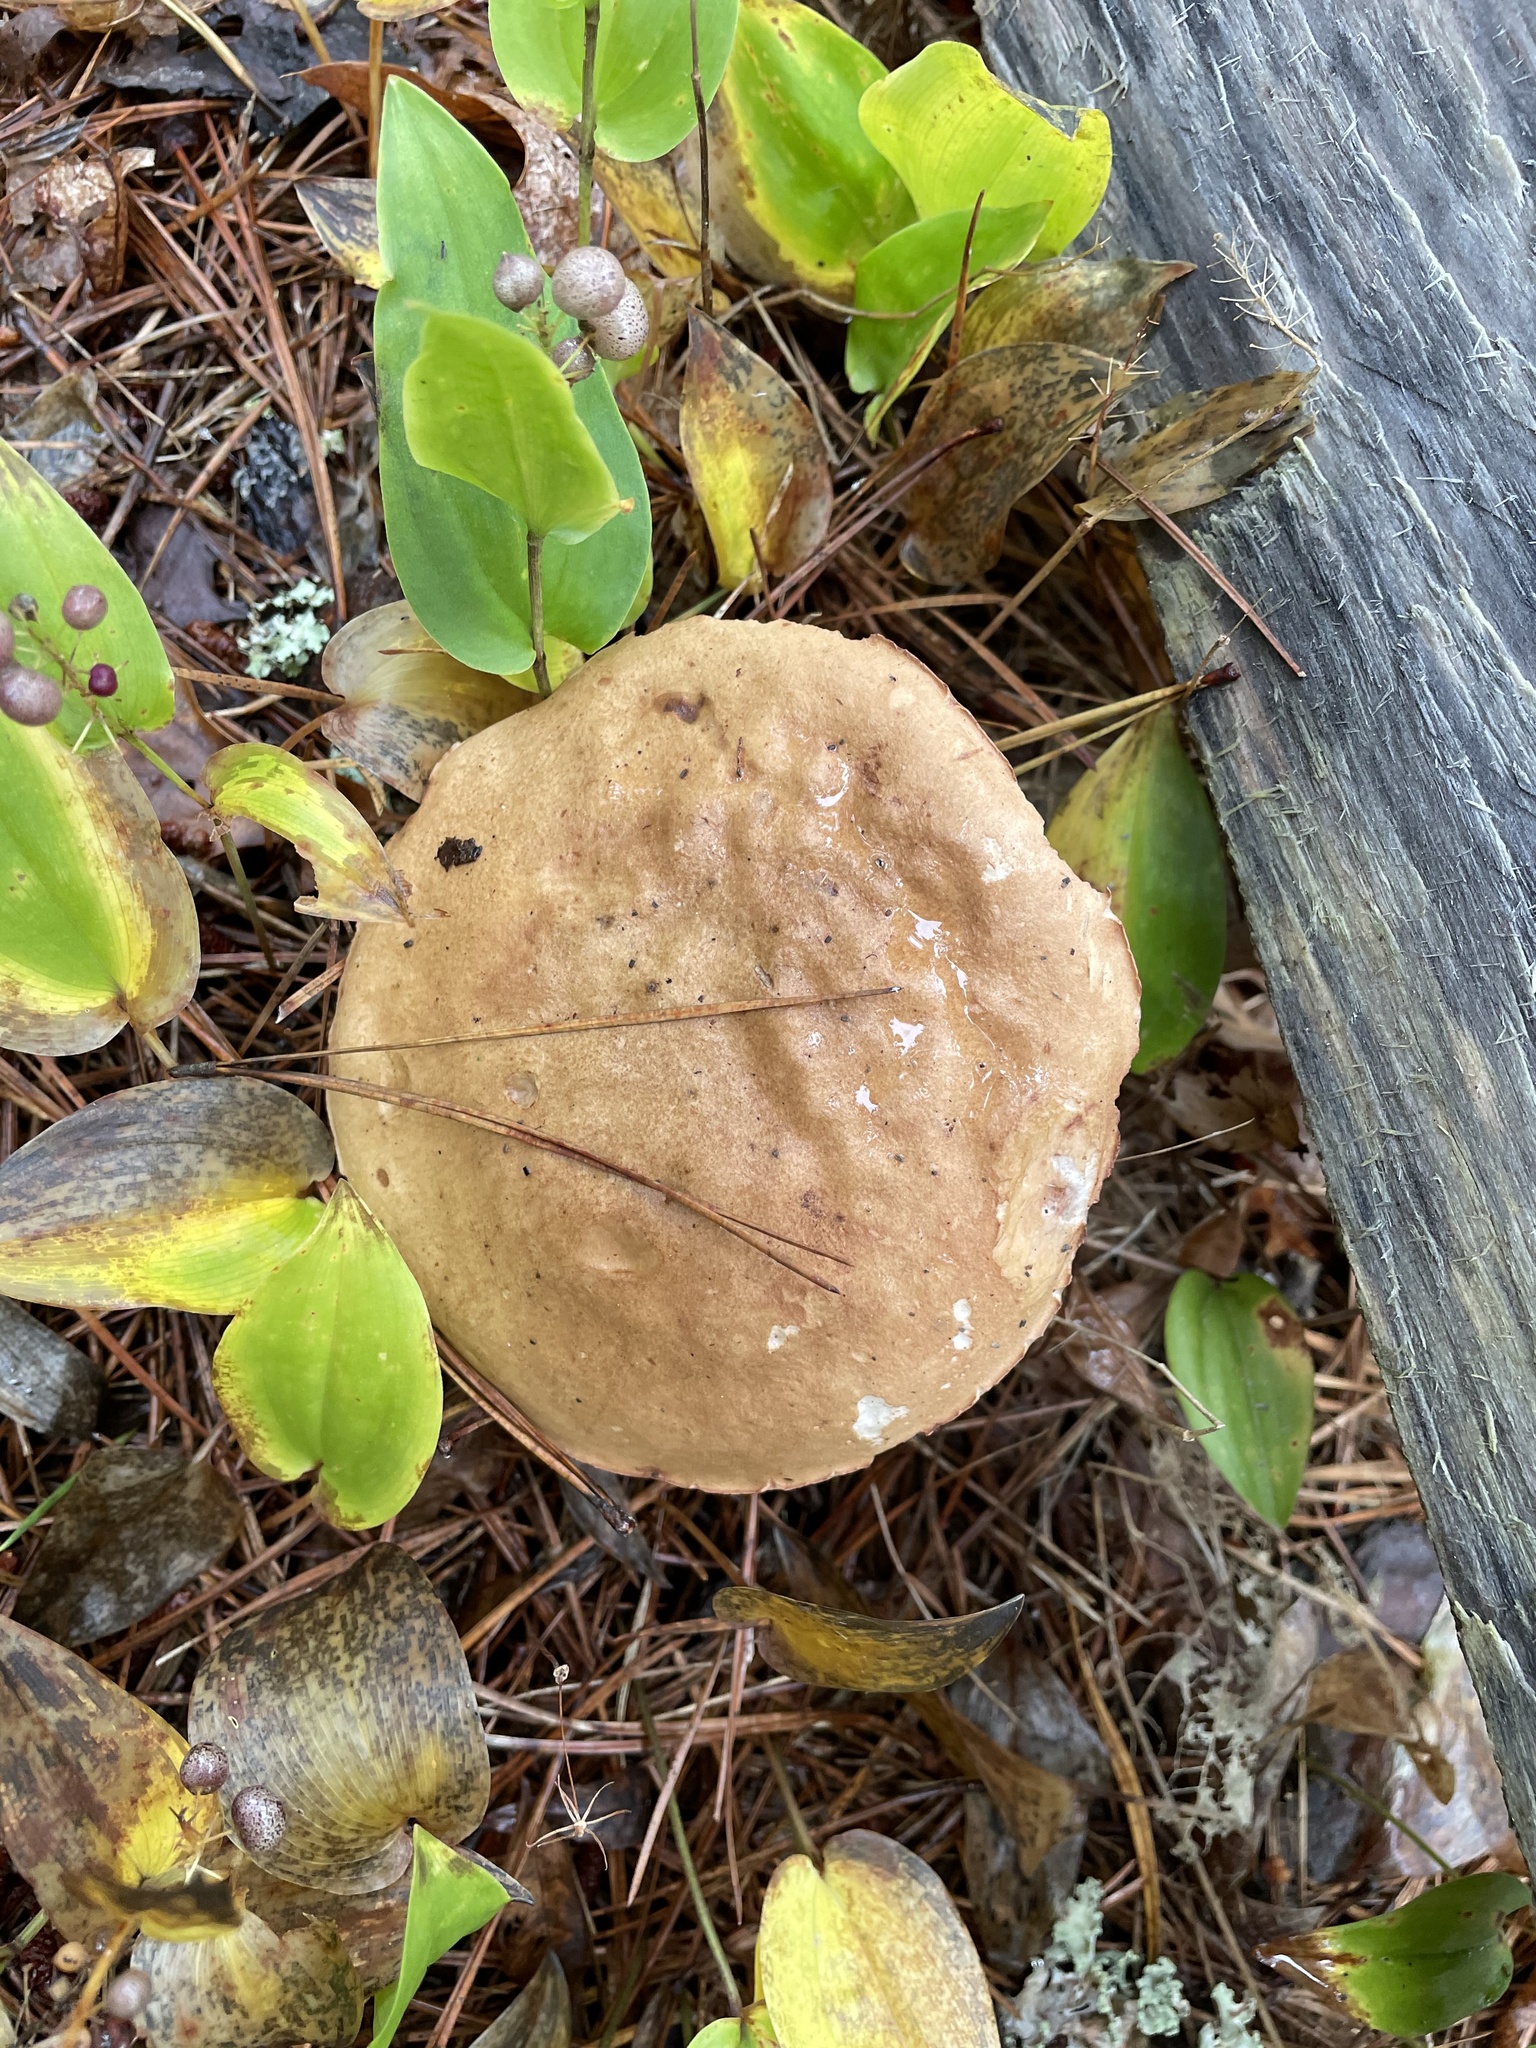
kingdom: Fungi
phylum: Basidiomycota
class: Agaricomycetes
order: Boletales
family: Boletaceae
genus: Tylopilus
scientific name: Tylopilus felleus
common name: Bitter bolete
